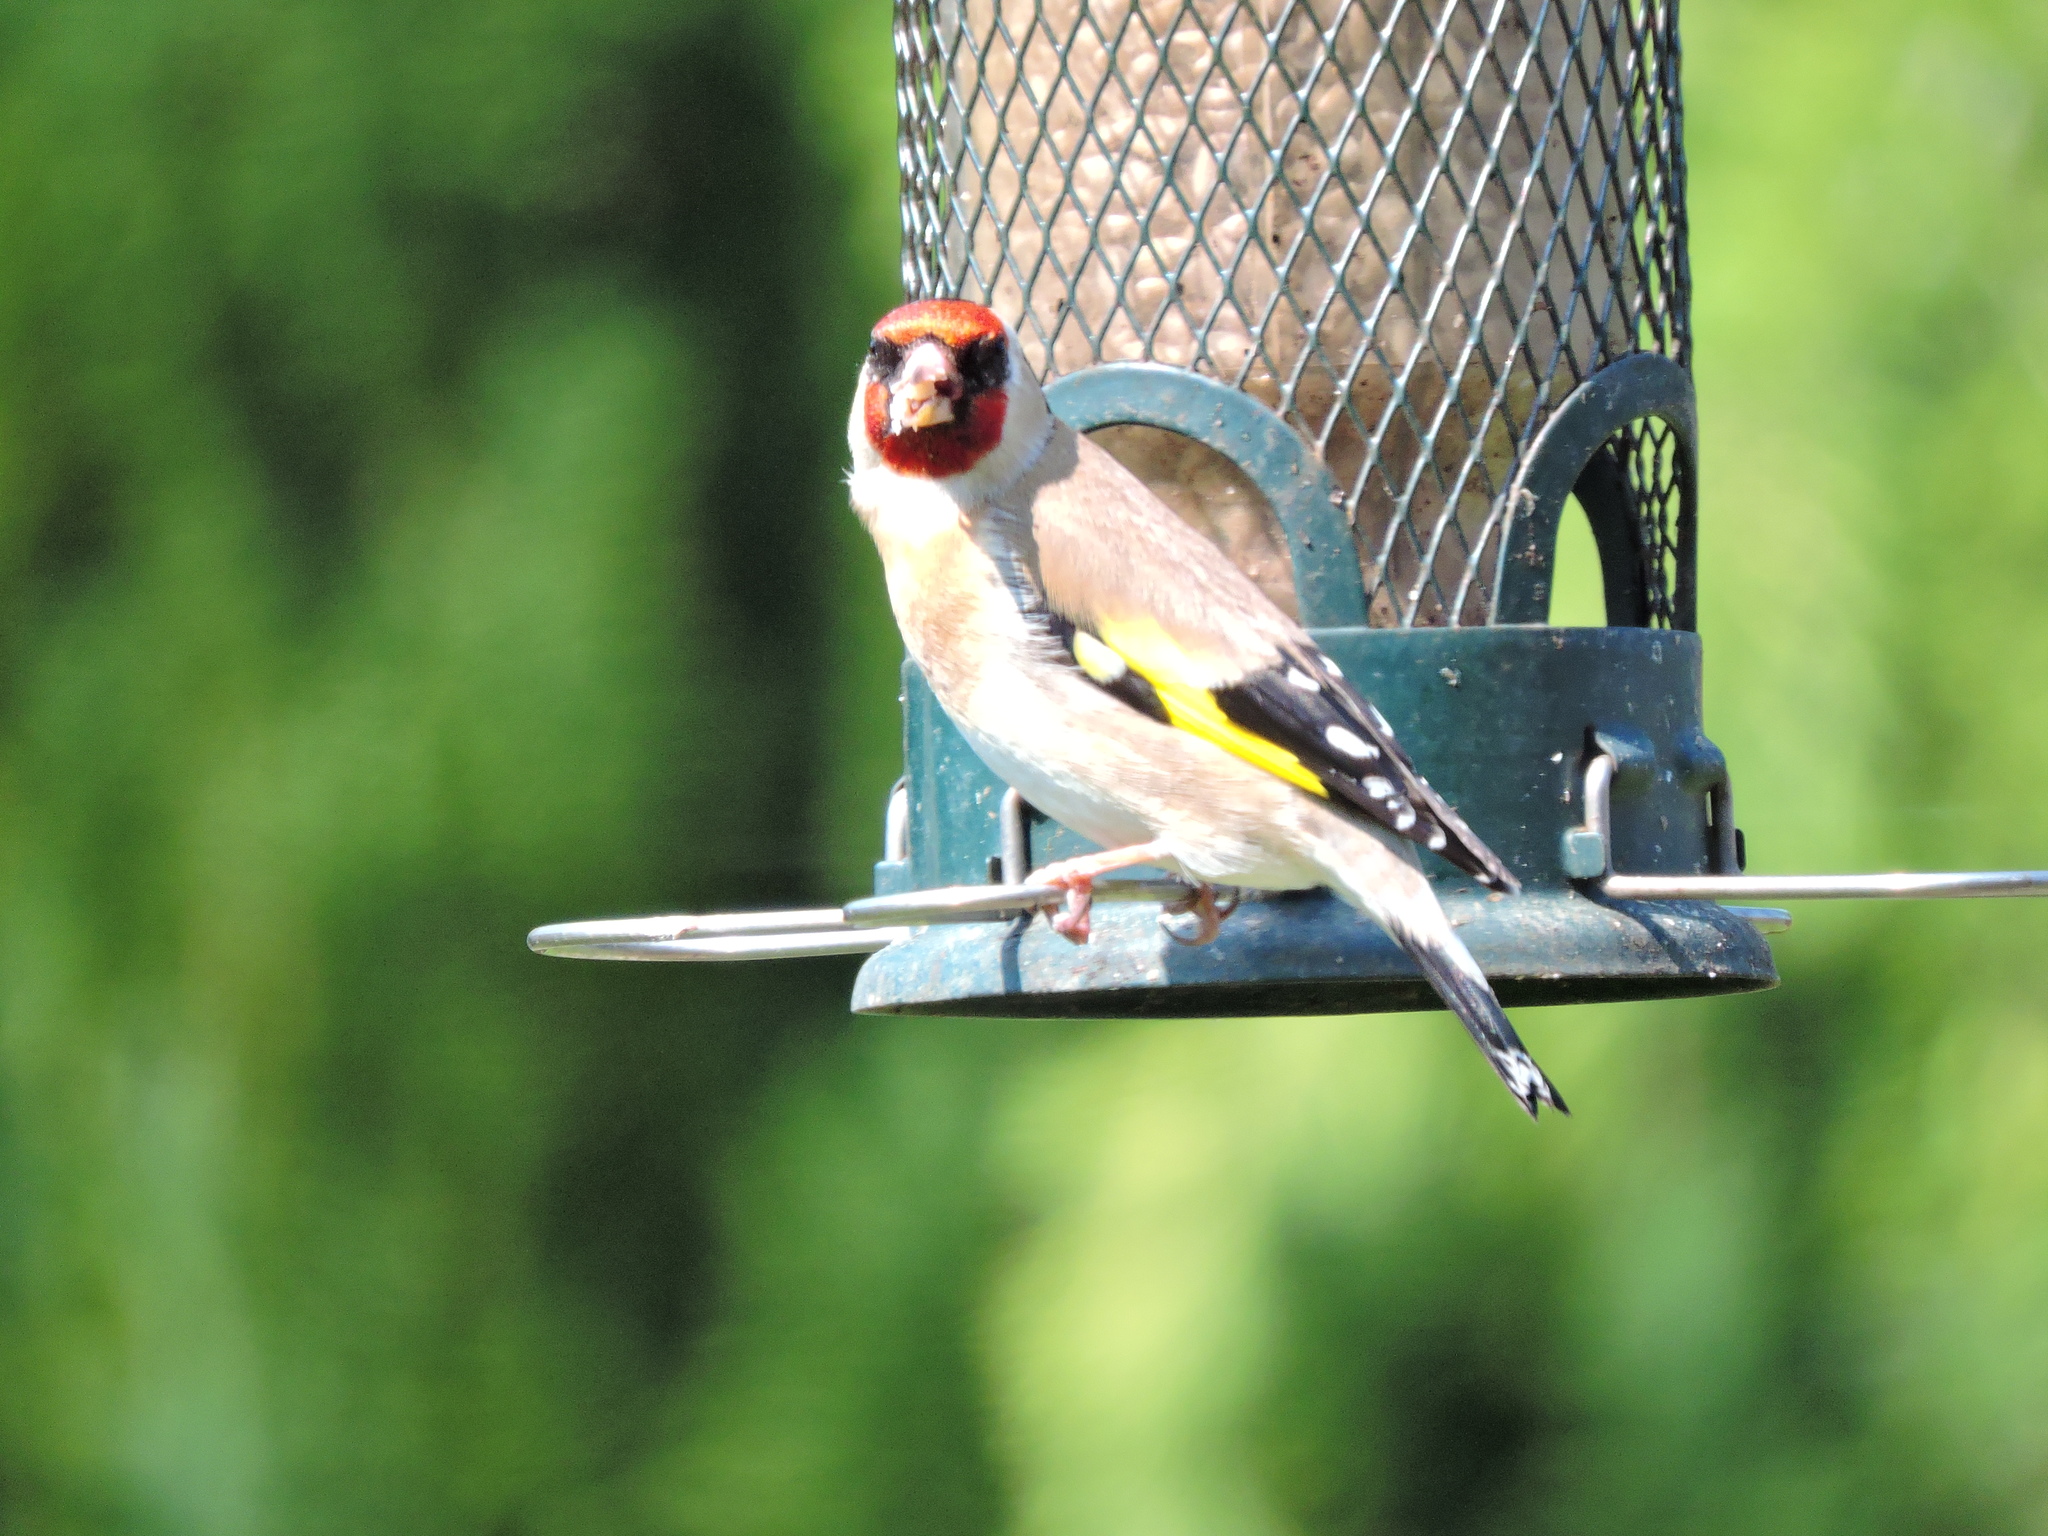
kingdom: Animalia
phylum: Chordata
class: Aves
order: Passeriformes
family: Fringillidae
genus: Carduelis
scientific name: Carduelis carduelis
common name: European goldfinch
